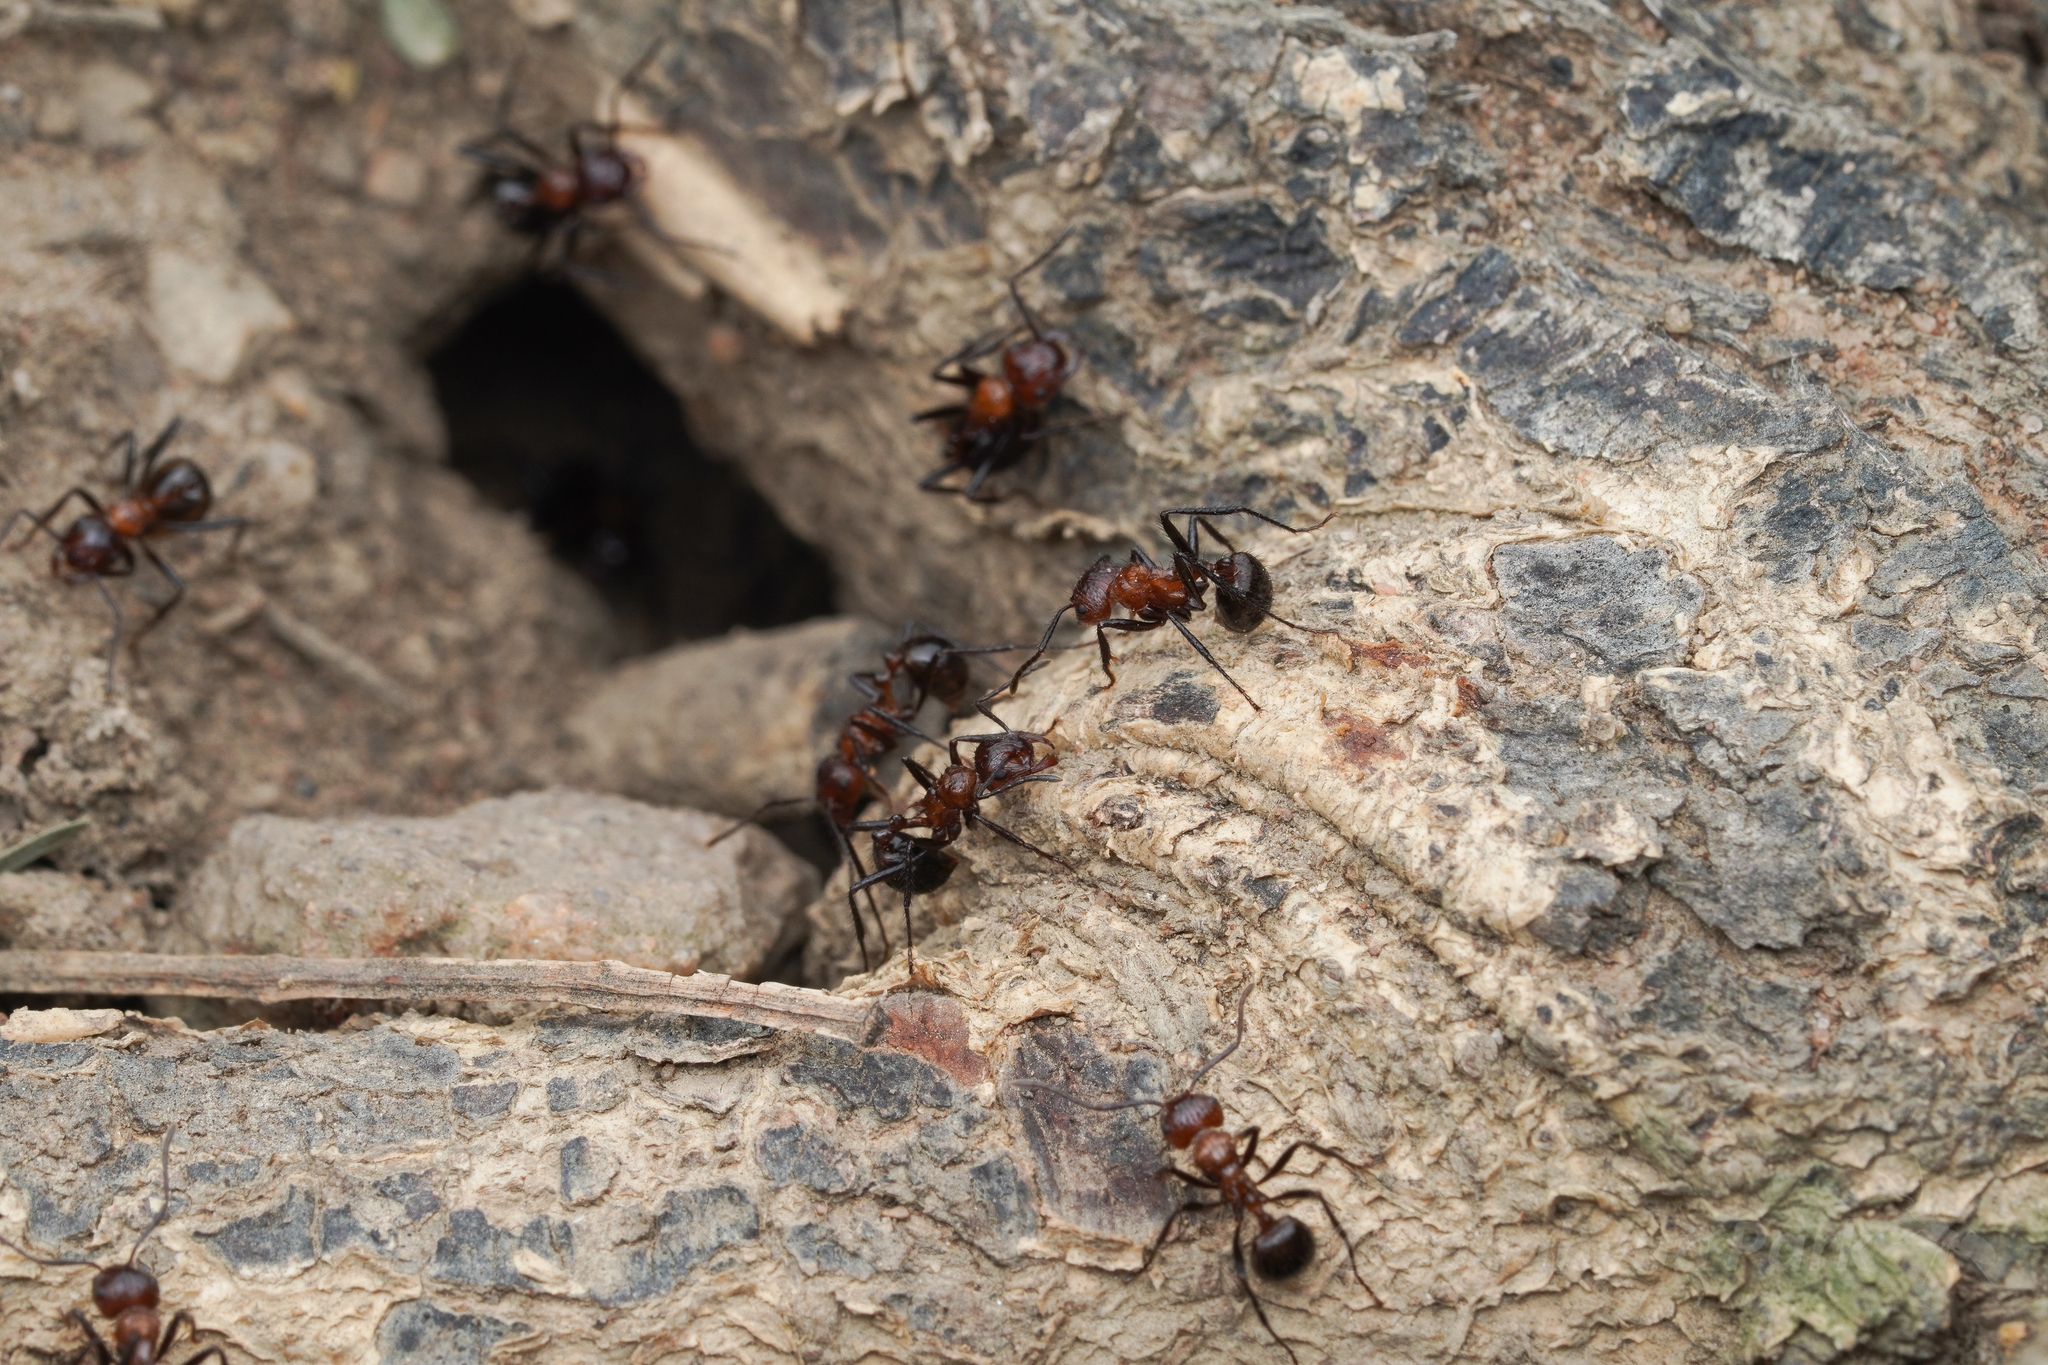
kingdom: Animalia
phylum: Arthropoda
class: Insecta
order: Hymenoptera
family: Formicidae
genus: Myrmicaria
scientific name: Myrmicaria natalensis
